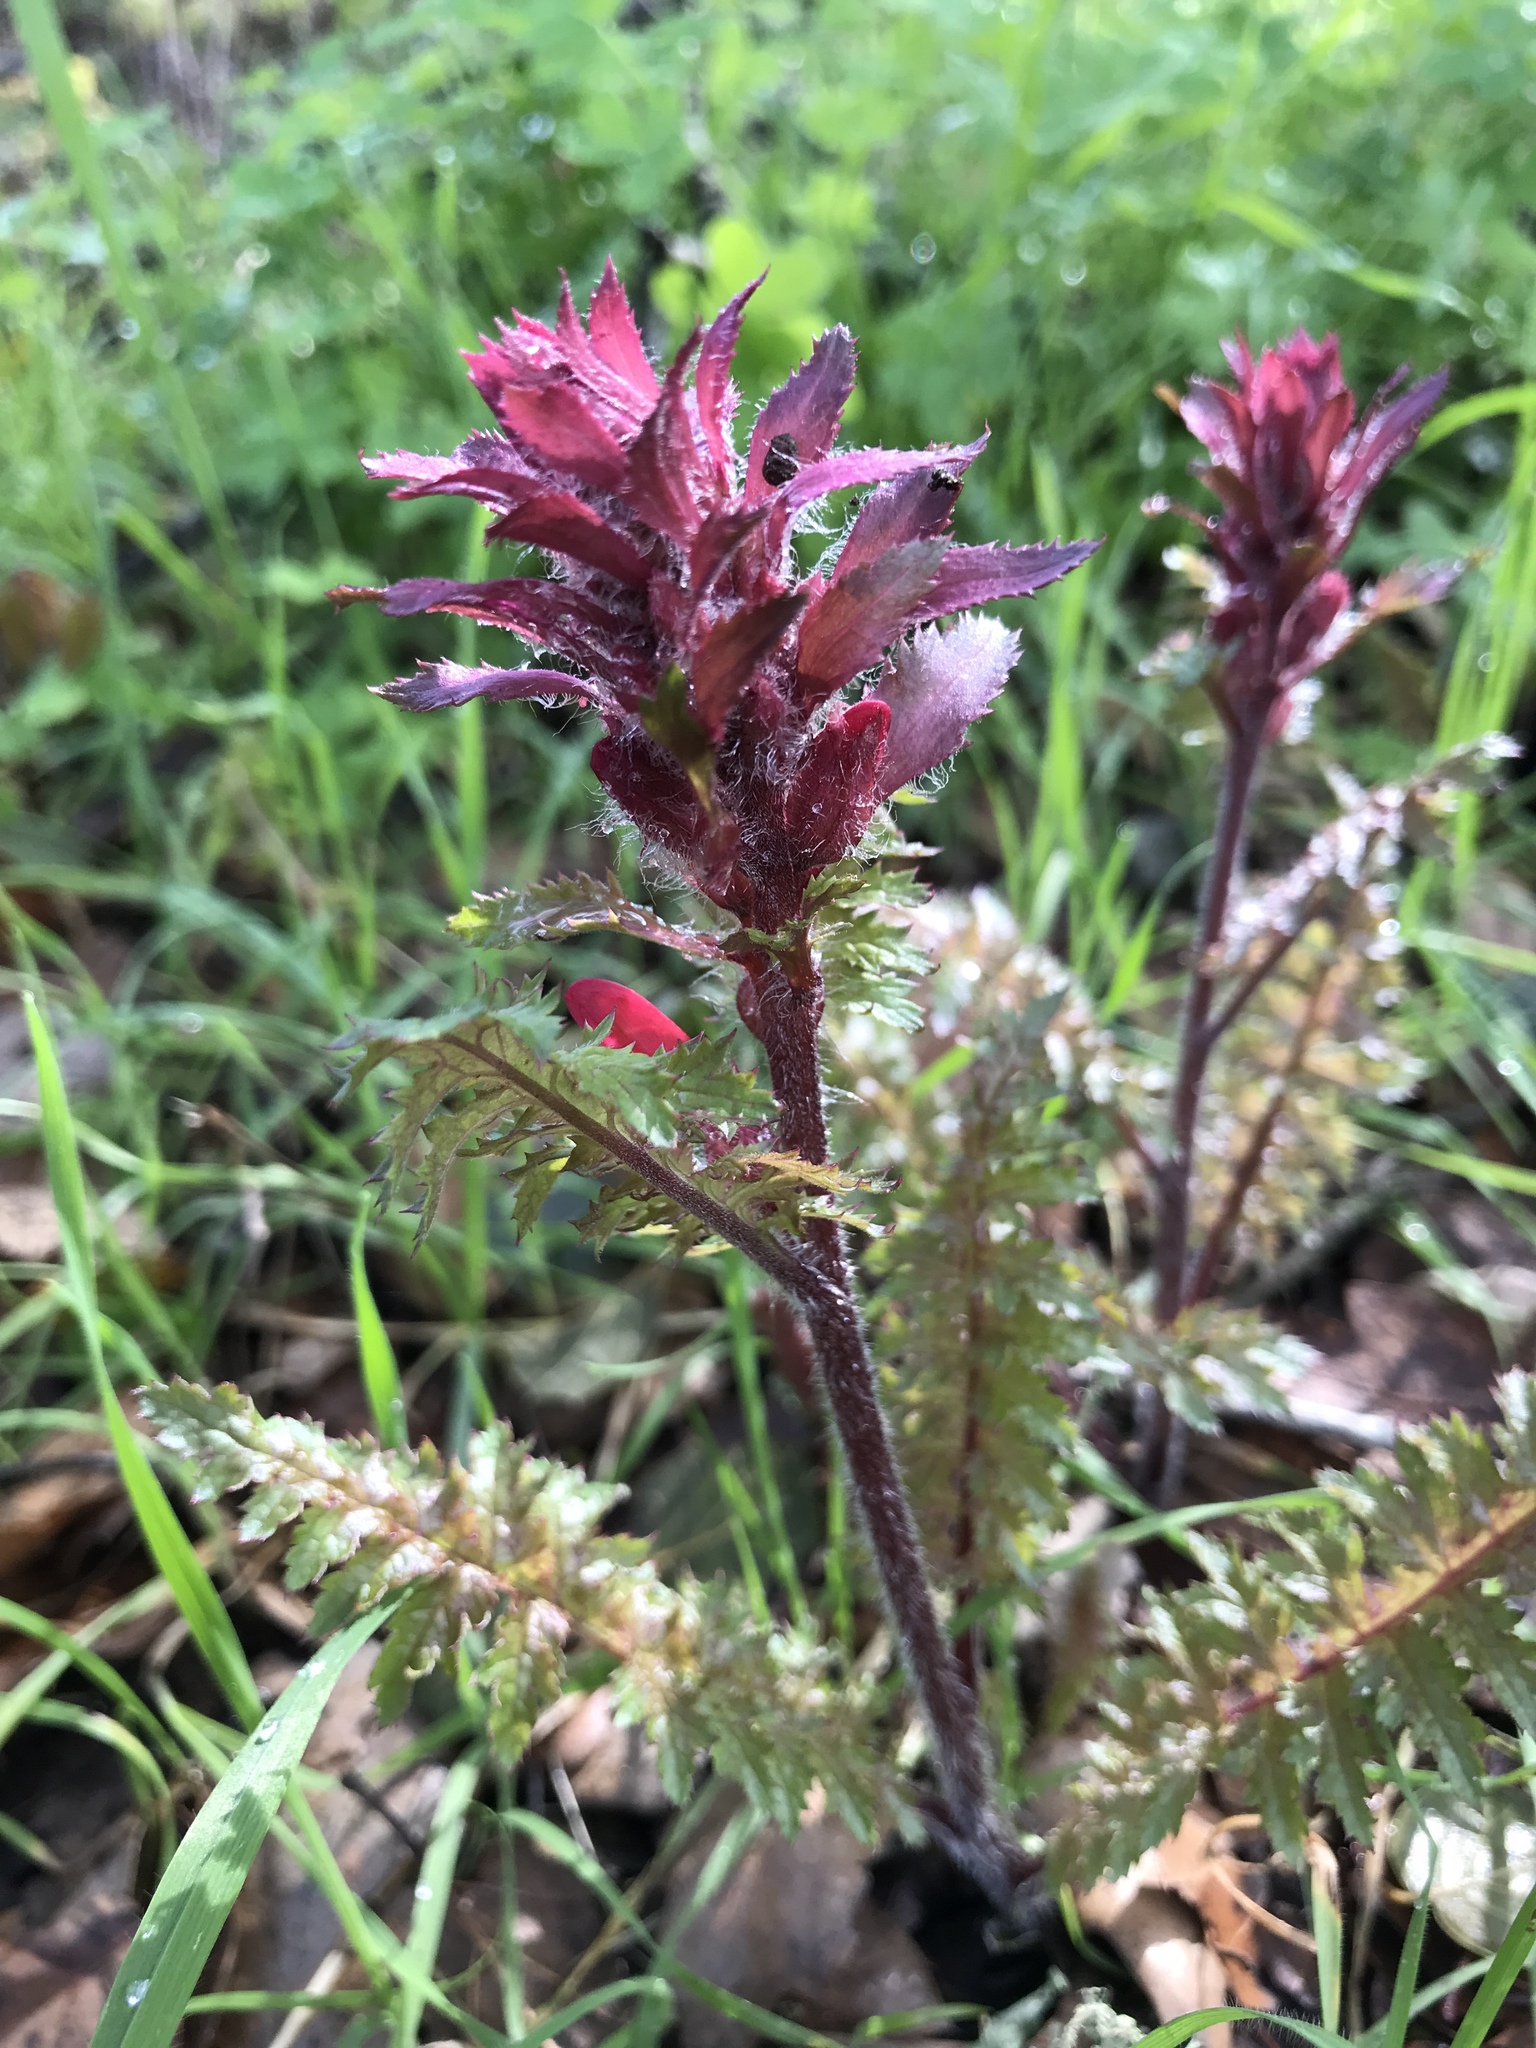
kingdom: Plantae
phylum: Tracheophyta
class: Magnoliopsida
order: Lamiales
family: Orobanchaceae
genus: Pedicularis
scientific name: Pedicularis densiflora
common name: Indian warrior
